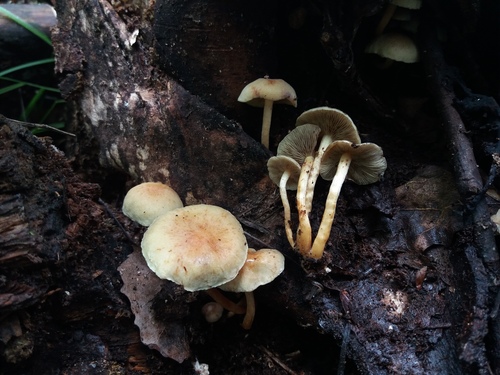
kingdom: Fungi
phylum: Basidiomycota
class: Agaricomycetes
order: Agaricales
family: Strophariaceae
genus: Hypholoma
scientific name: Hypholoma fasciculare
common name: Sulphur tuft
